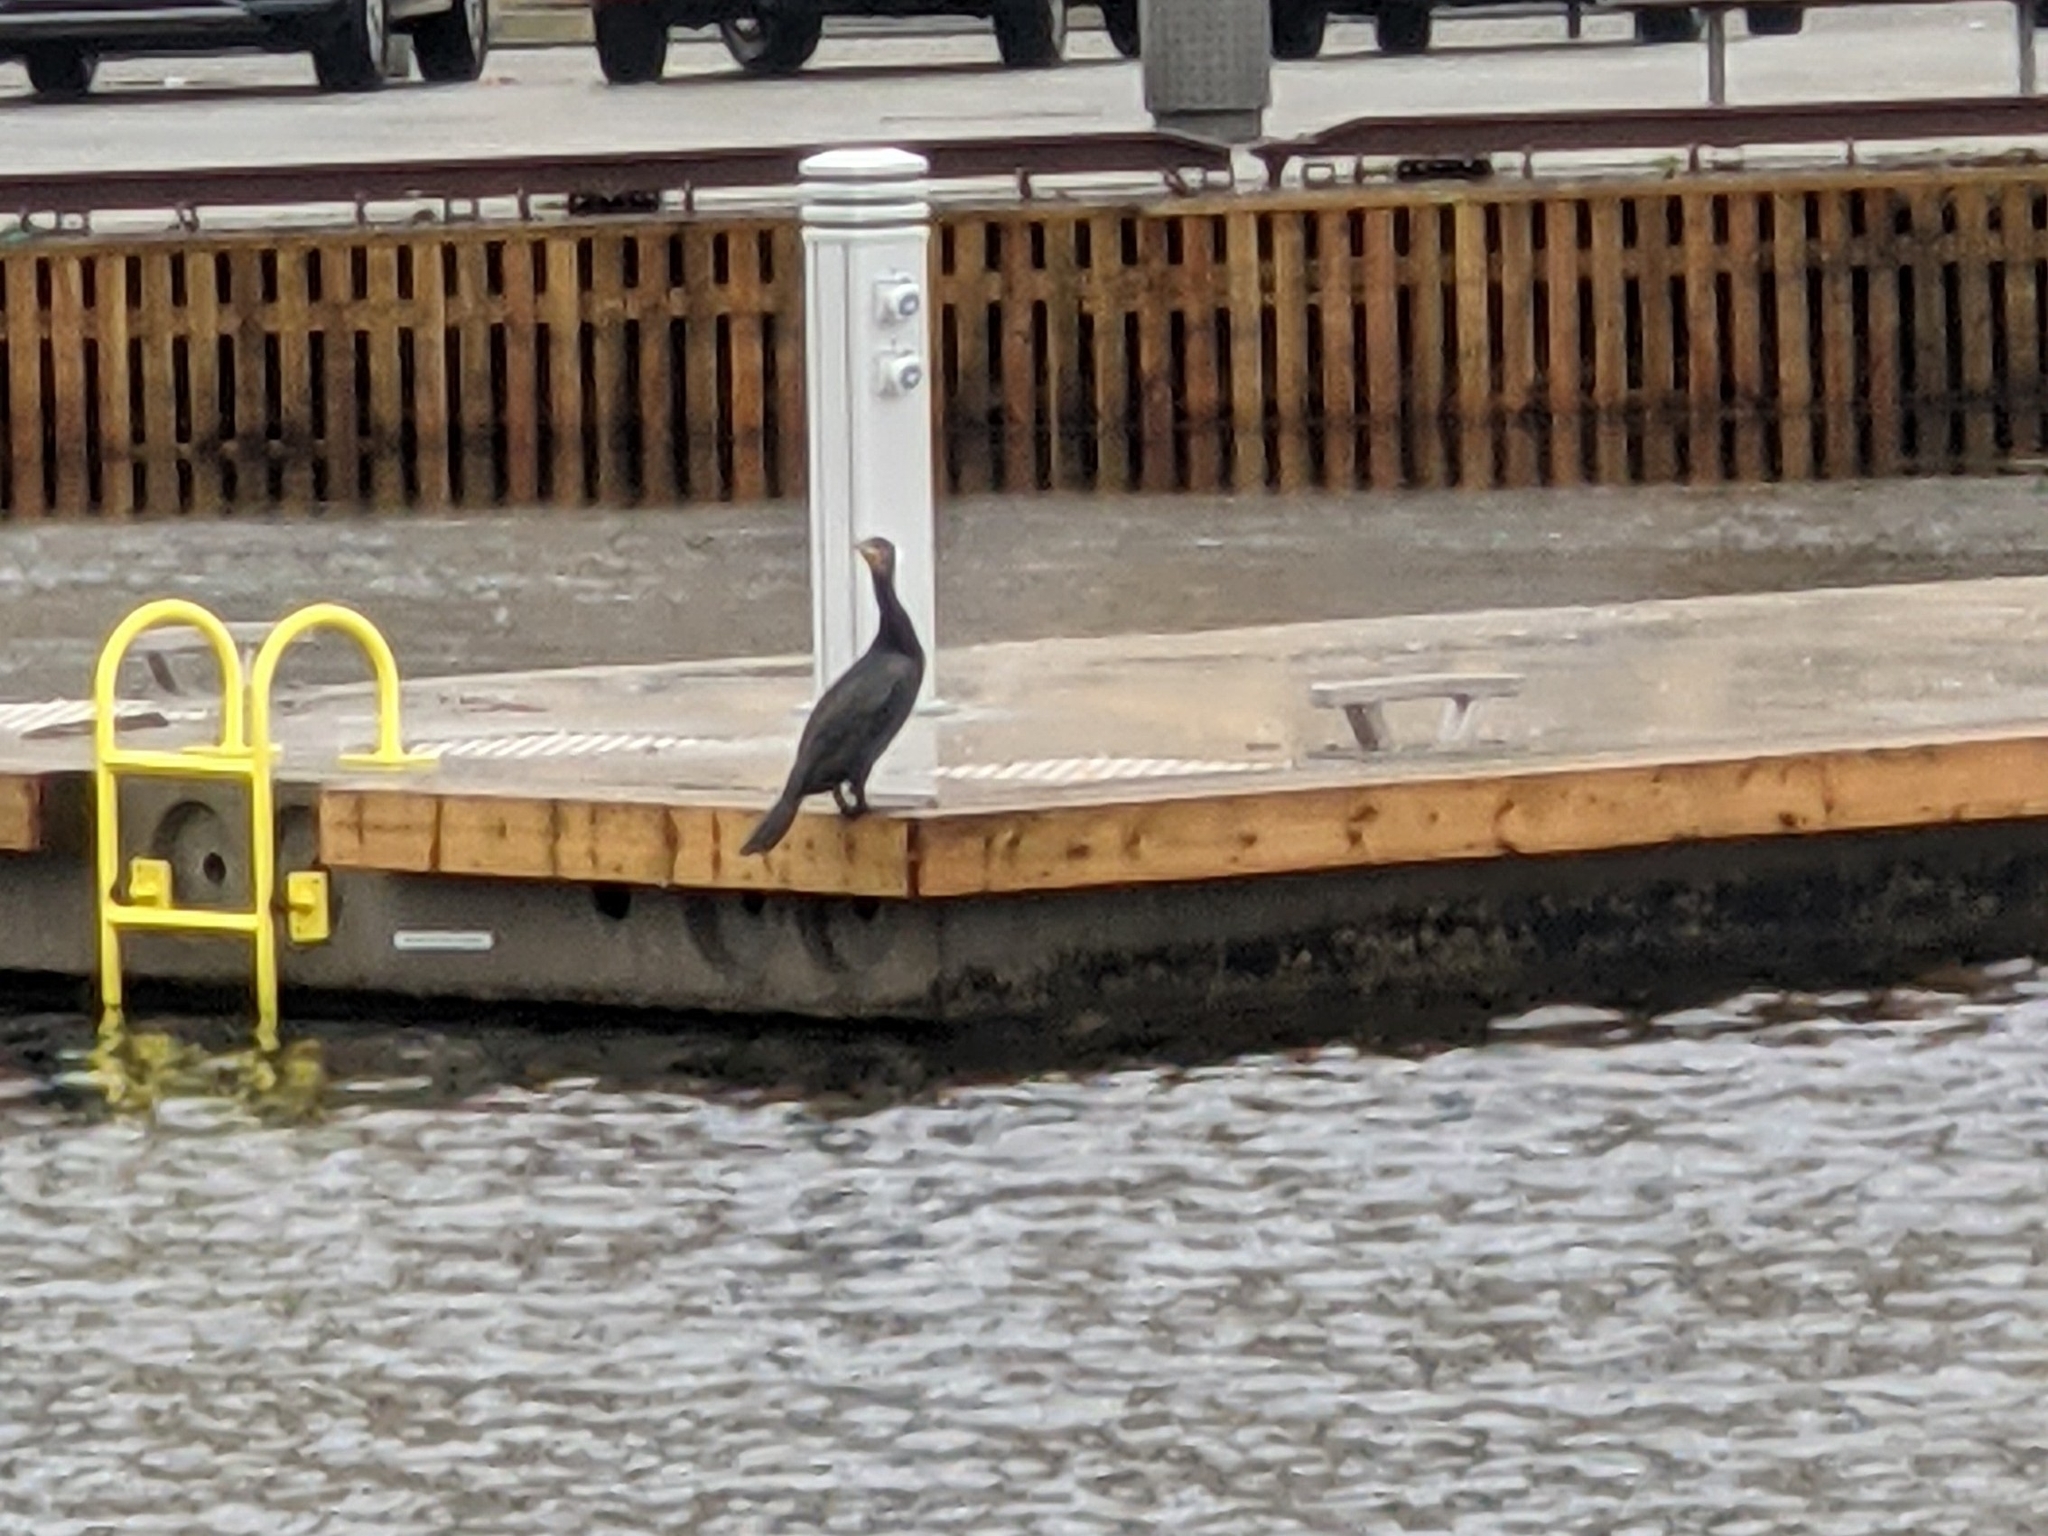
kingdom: Animalia
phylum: Chordata
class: Aves
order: Suliformes
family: Phalacrocoracidae
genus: Phalacrocorax
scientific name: Phalacrocorax carbo
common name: Great cormorant
